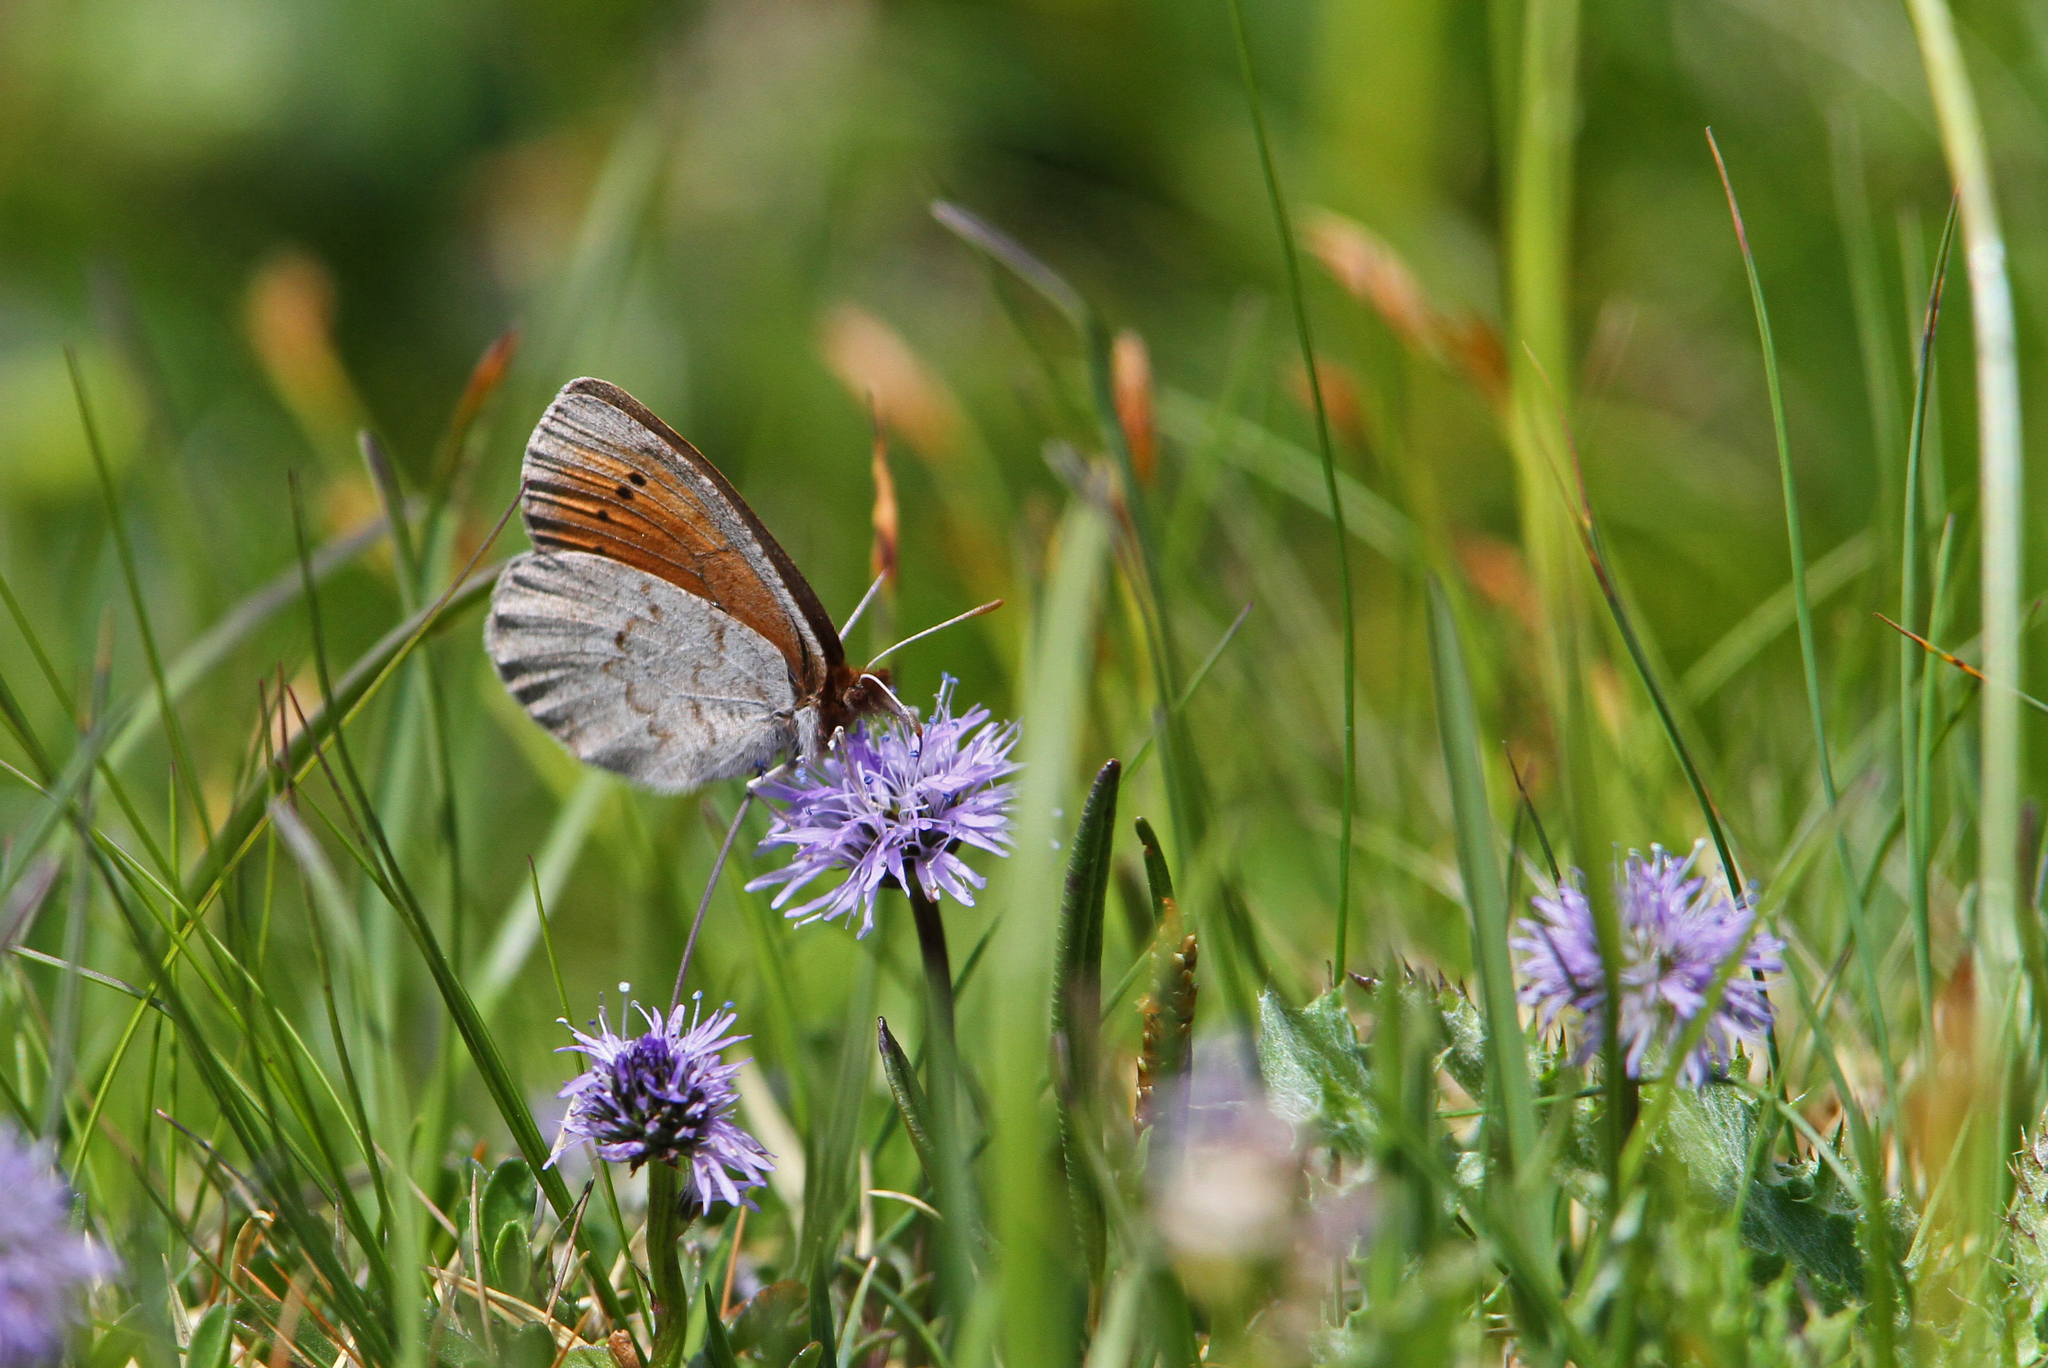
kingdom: Animalia
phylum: Arthropoda
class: Insecta
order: Lepidoptera
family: Nymphalidae
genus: Erebia
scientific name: Erebia pandrose
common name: Dewy ringlet
